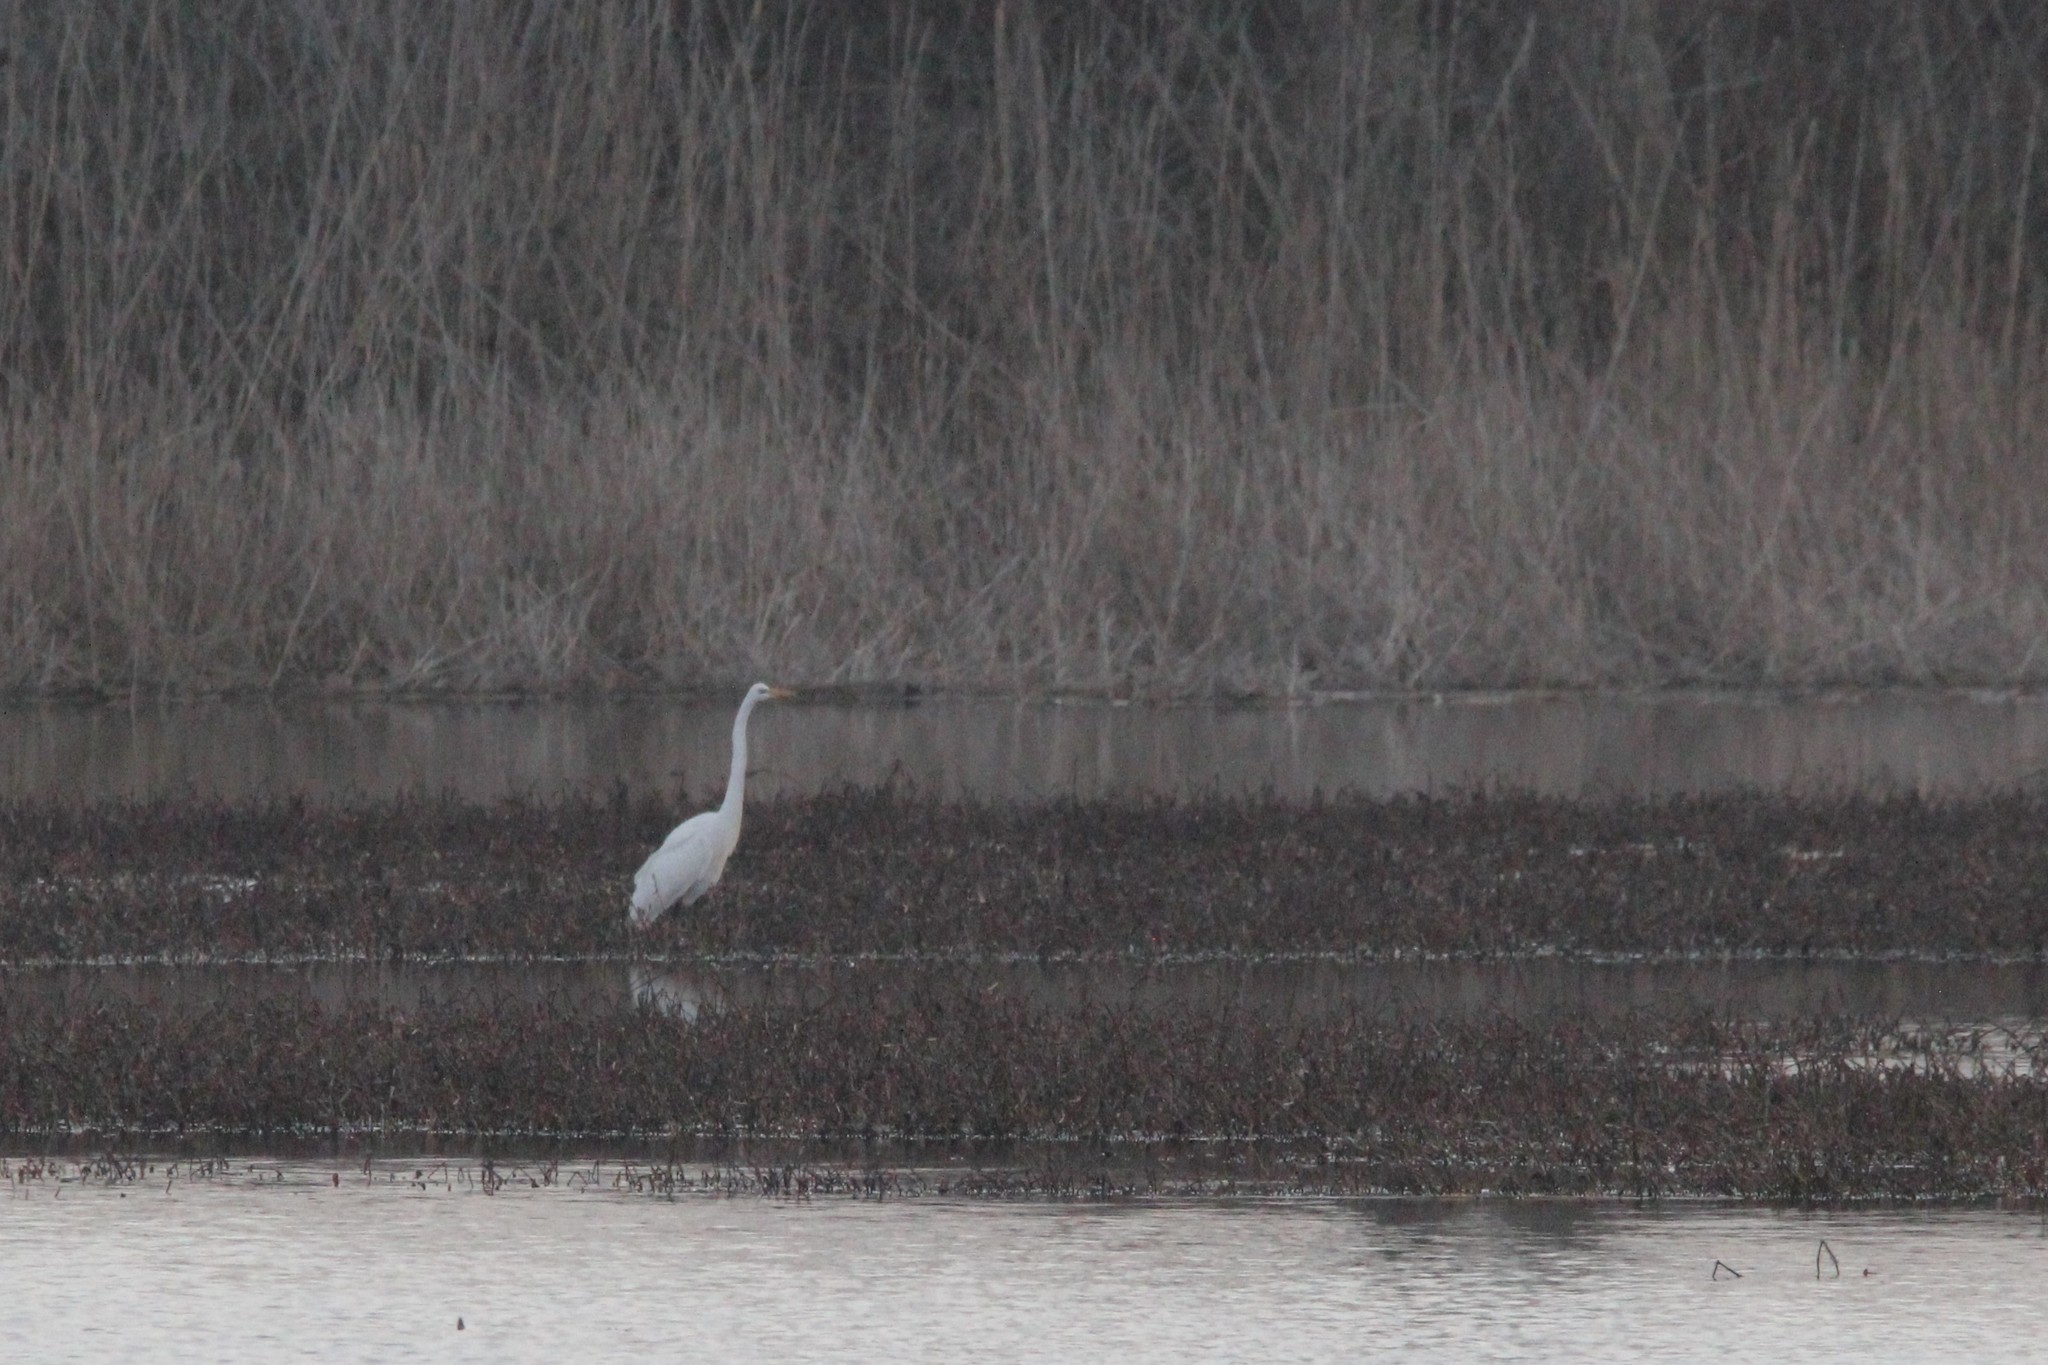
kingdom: Animalia
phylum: Chordata
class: Aves
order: Pelecaniformes
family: Ardeidae
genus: Ardea
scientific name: Ardea alba
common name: Great egret
